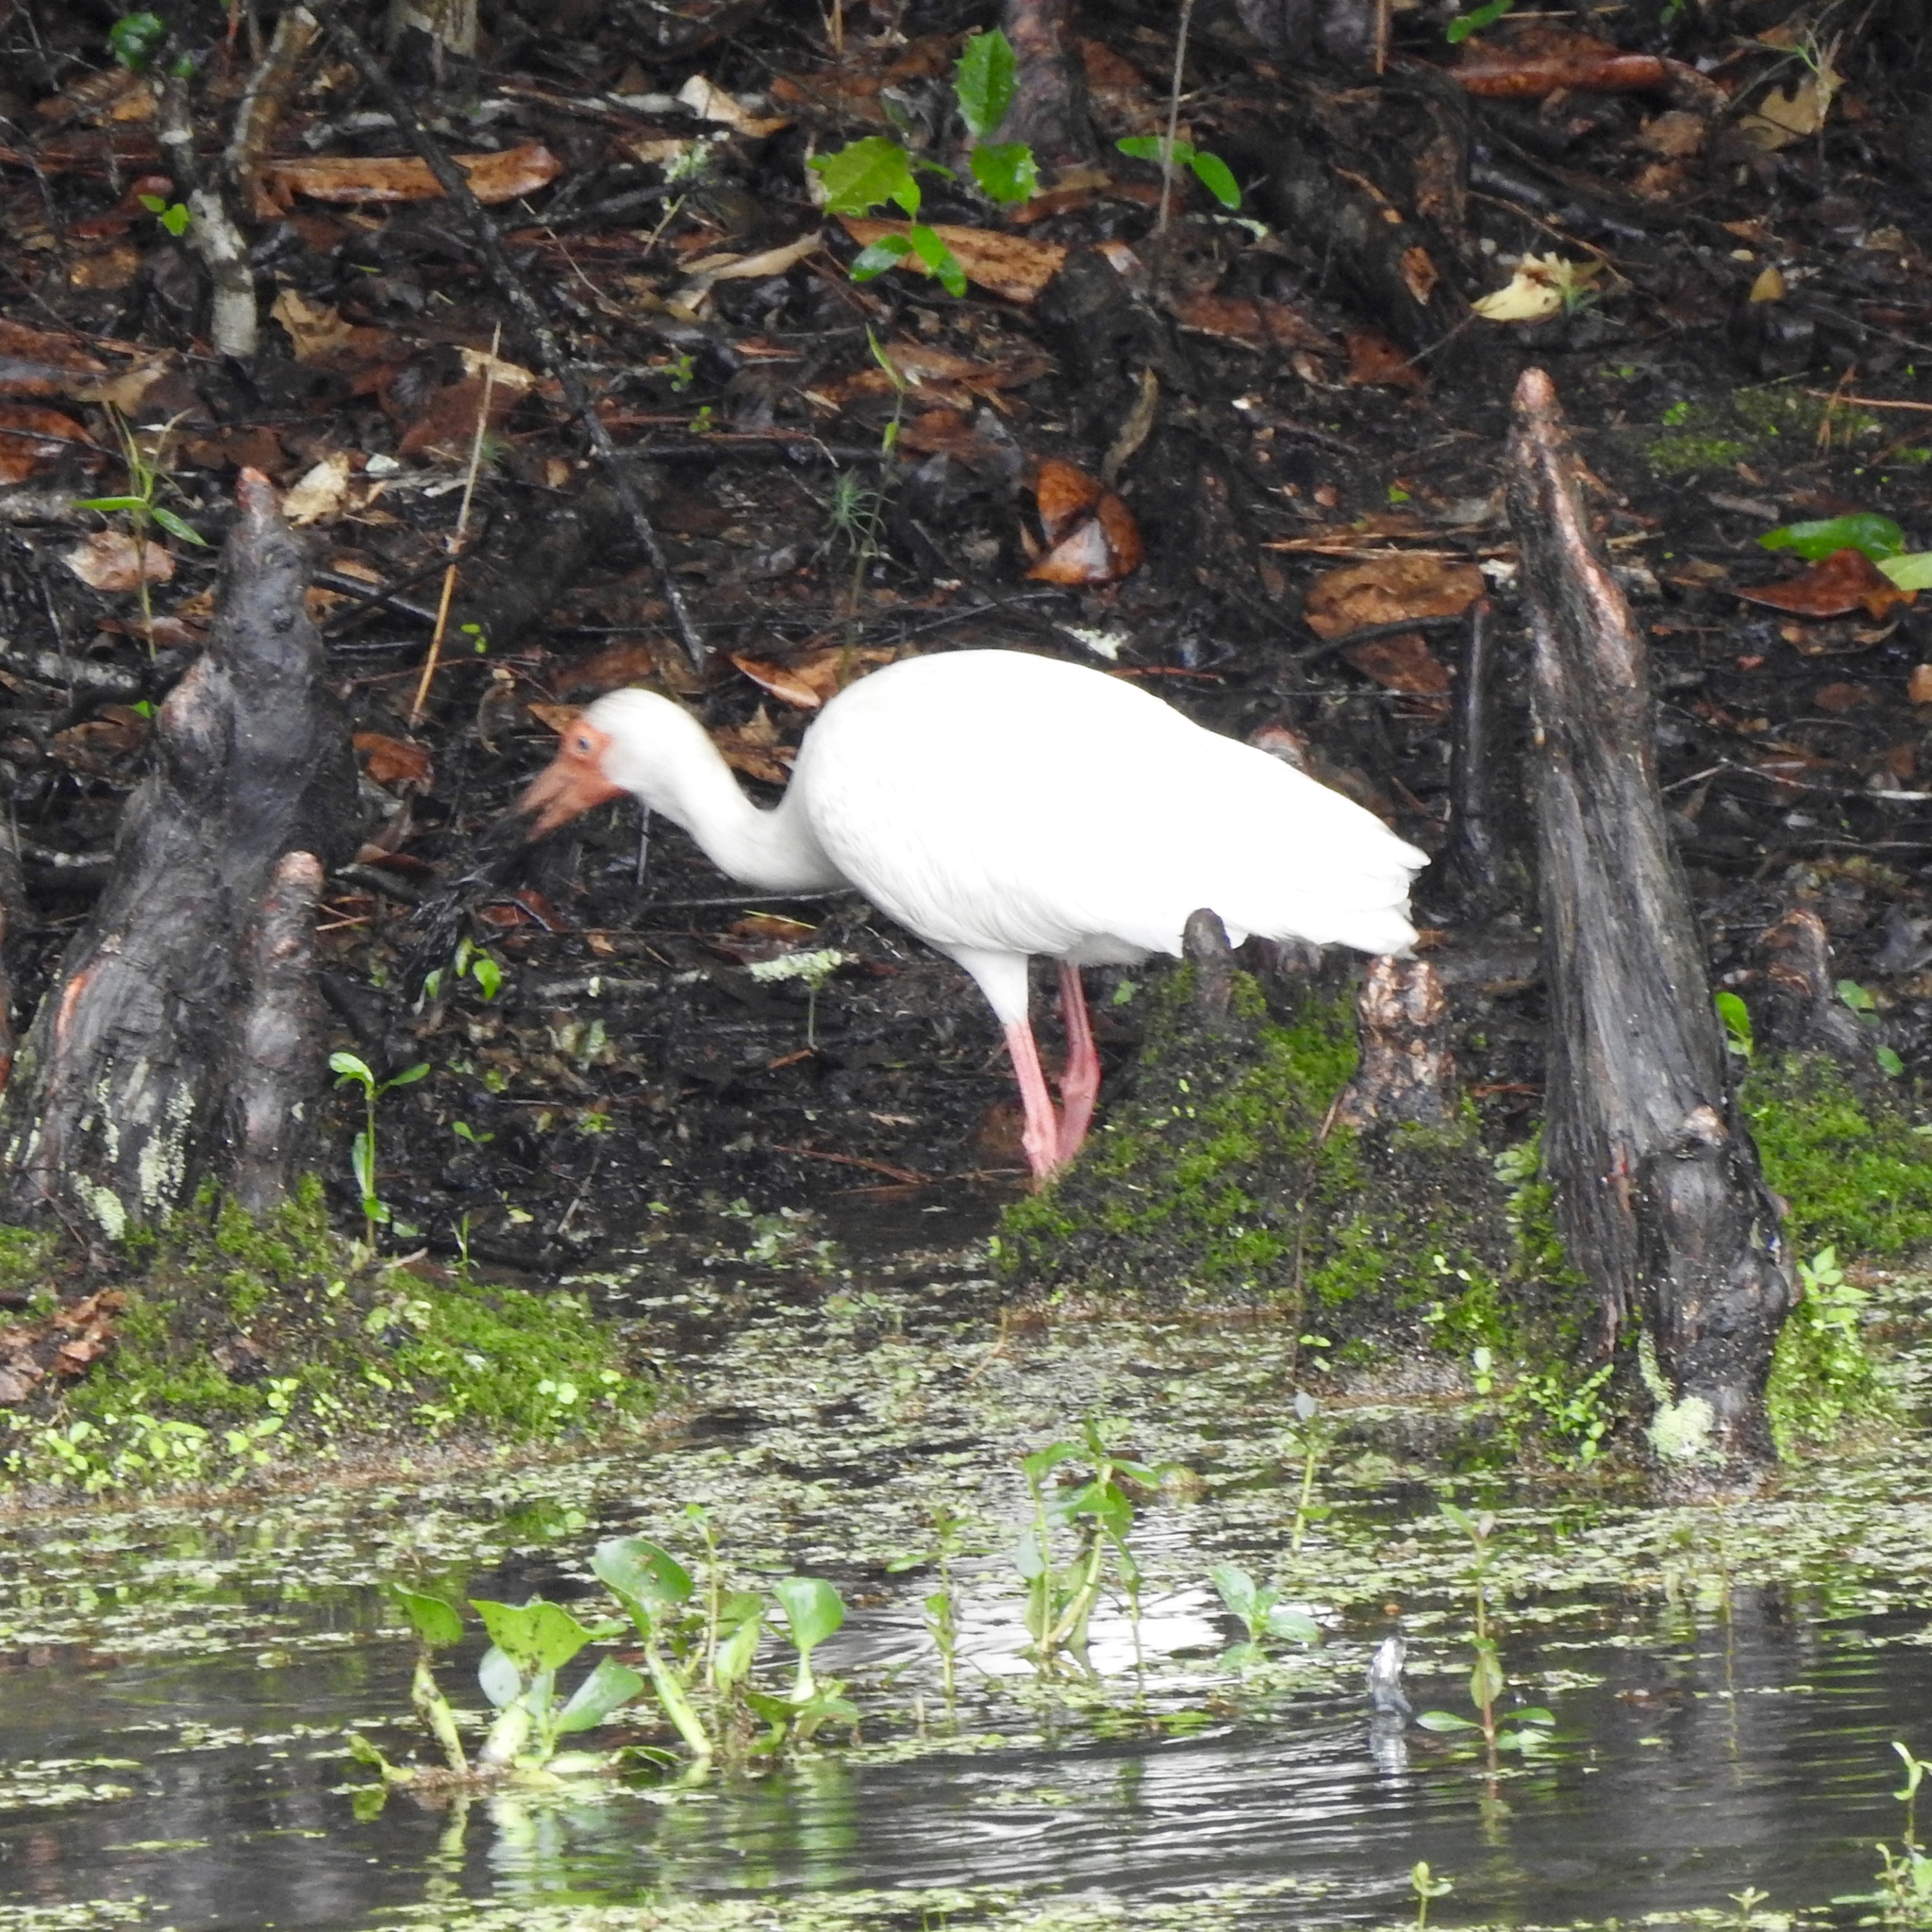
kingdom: Animalia
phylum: Chordata
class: Aves
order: Pelecaniformes
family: Threskiornithidae
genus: Eudocimus
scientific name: Eudocimus albus
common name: White ibis
